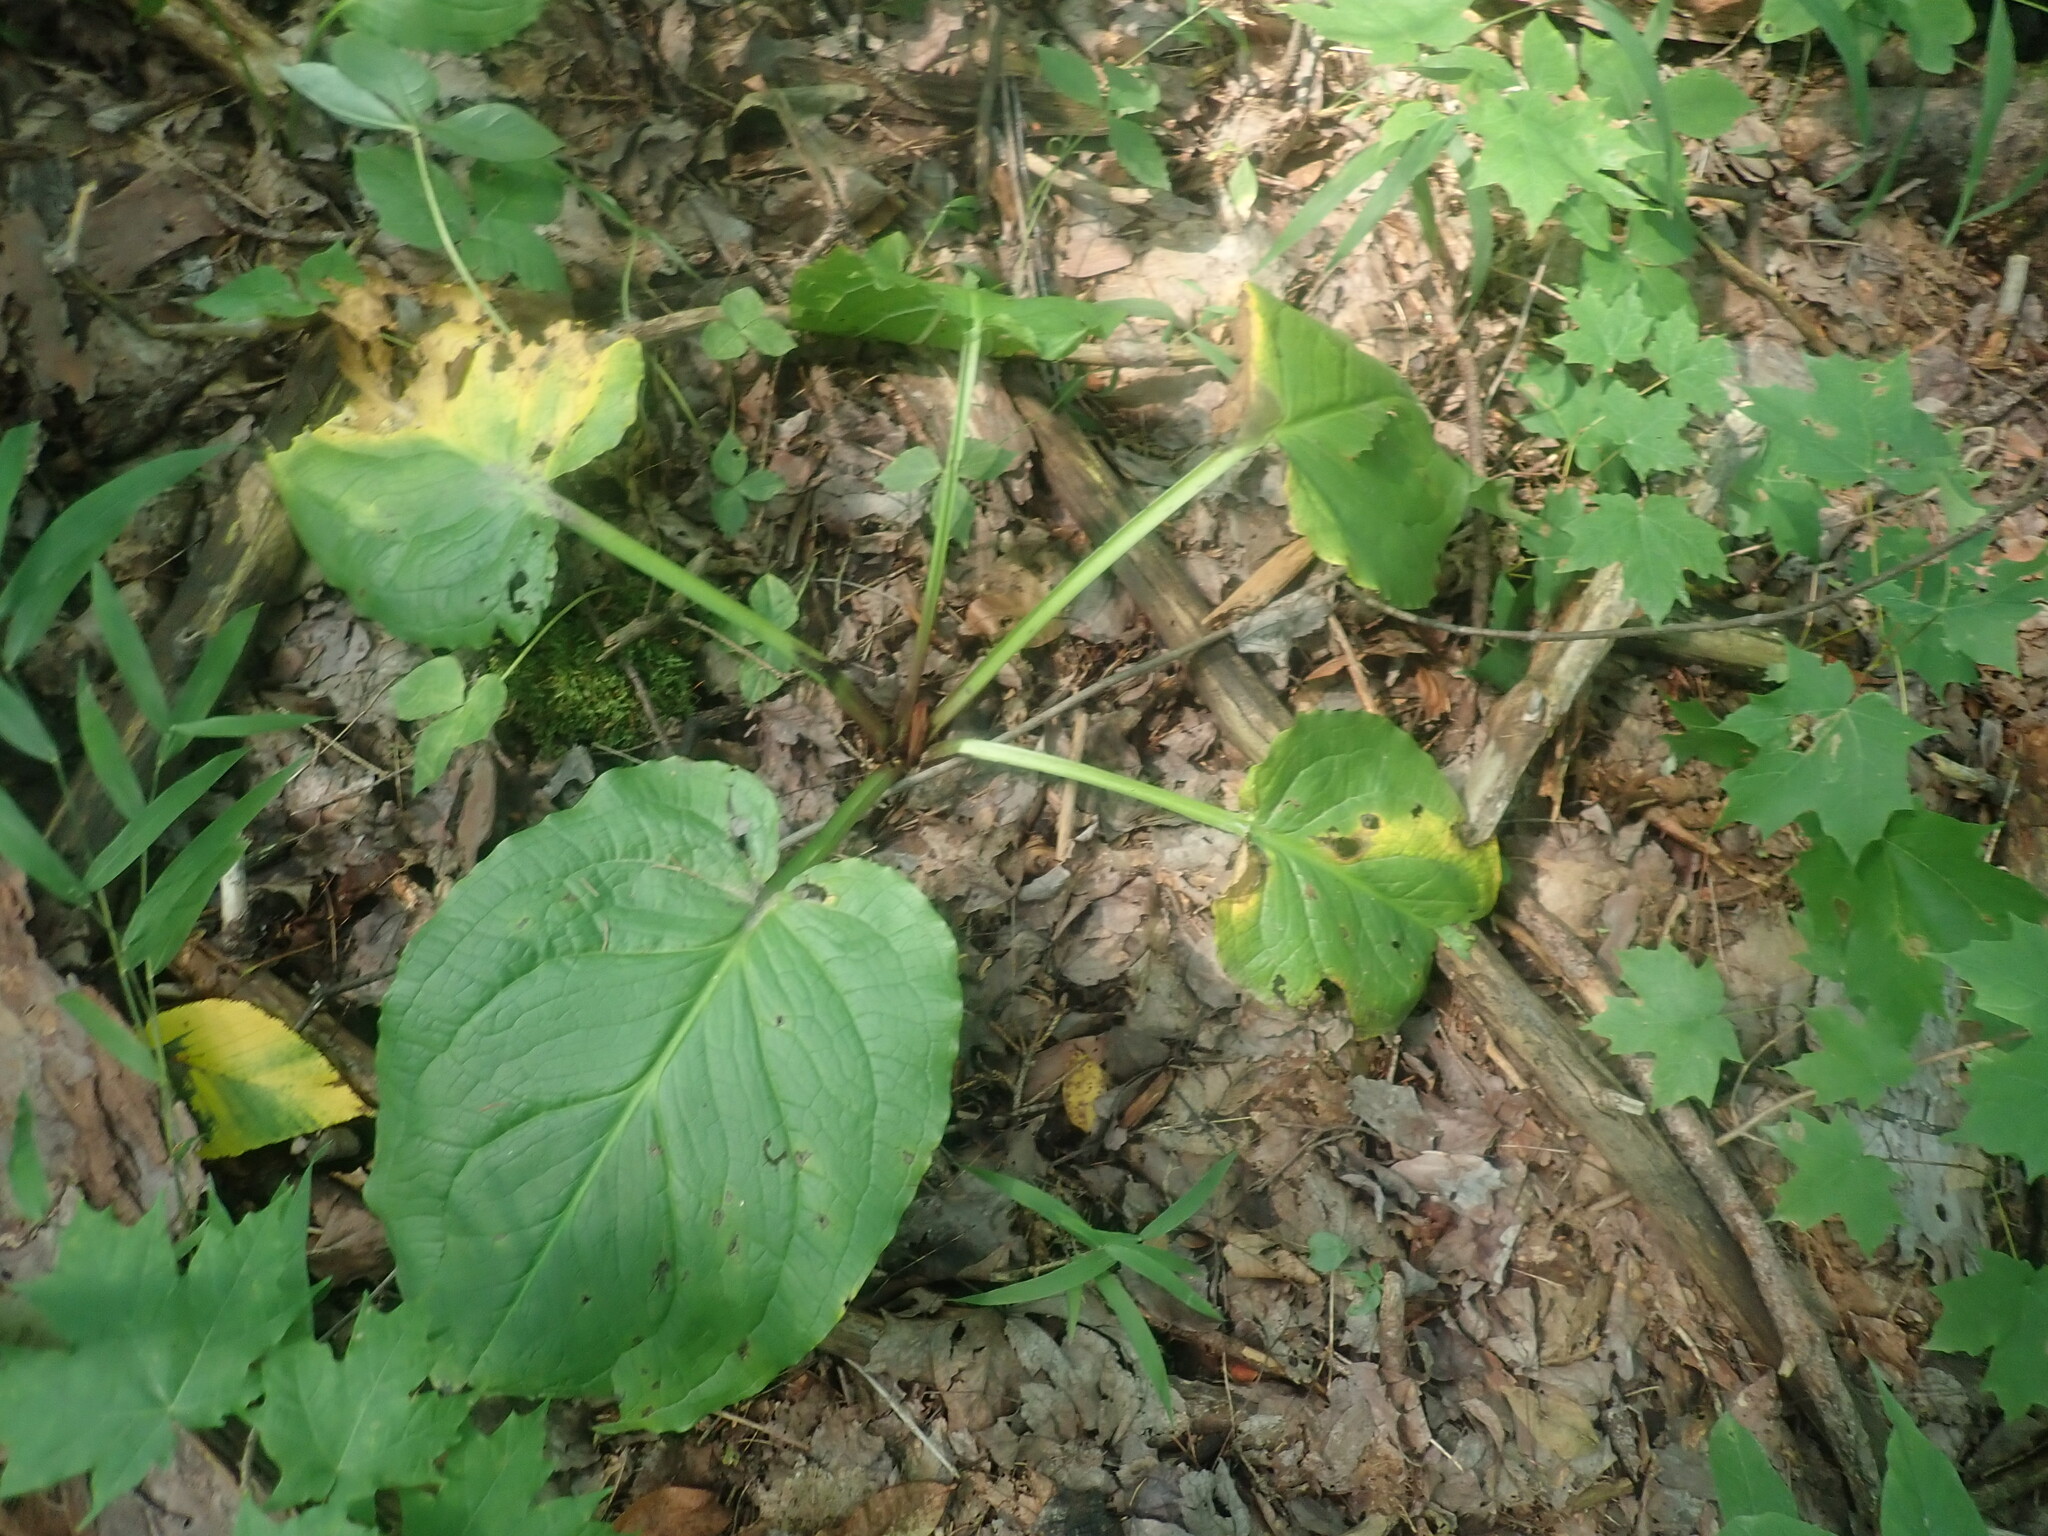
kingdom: Plantae
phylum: Tracheophyta
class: Liliopsida
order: Alismatales
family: Araceae
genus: Symplocarpus
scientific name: Symplocarpus foetidus
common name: Eastern skunk cabbage
